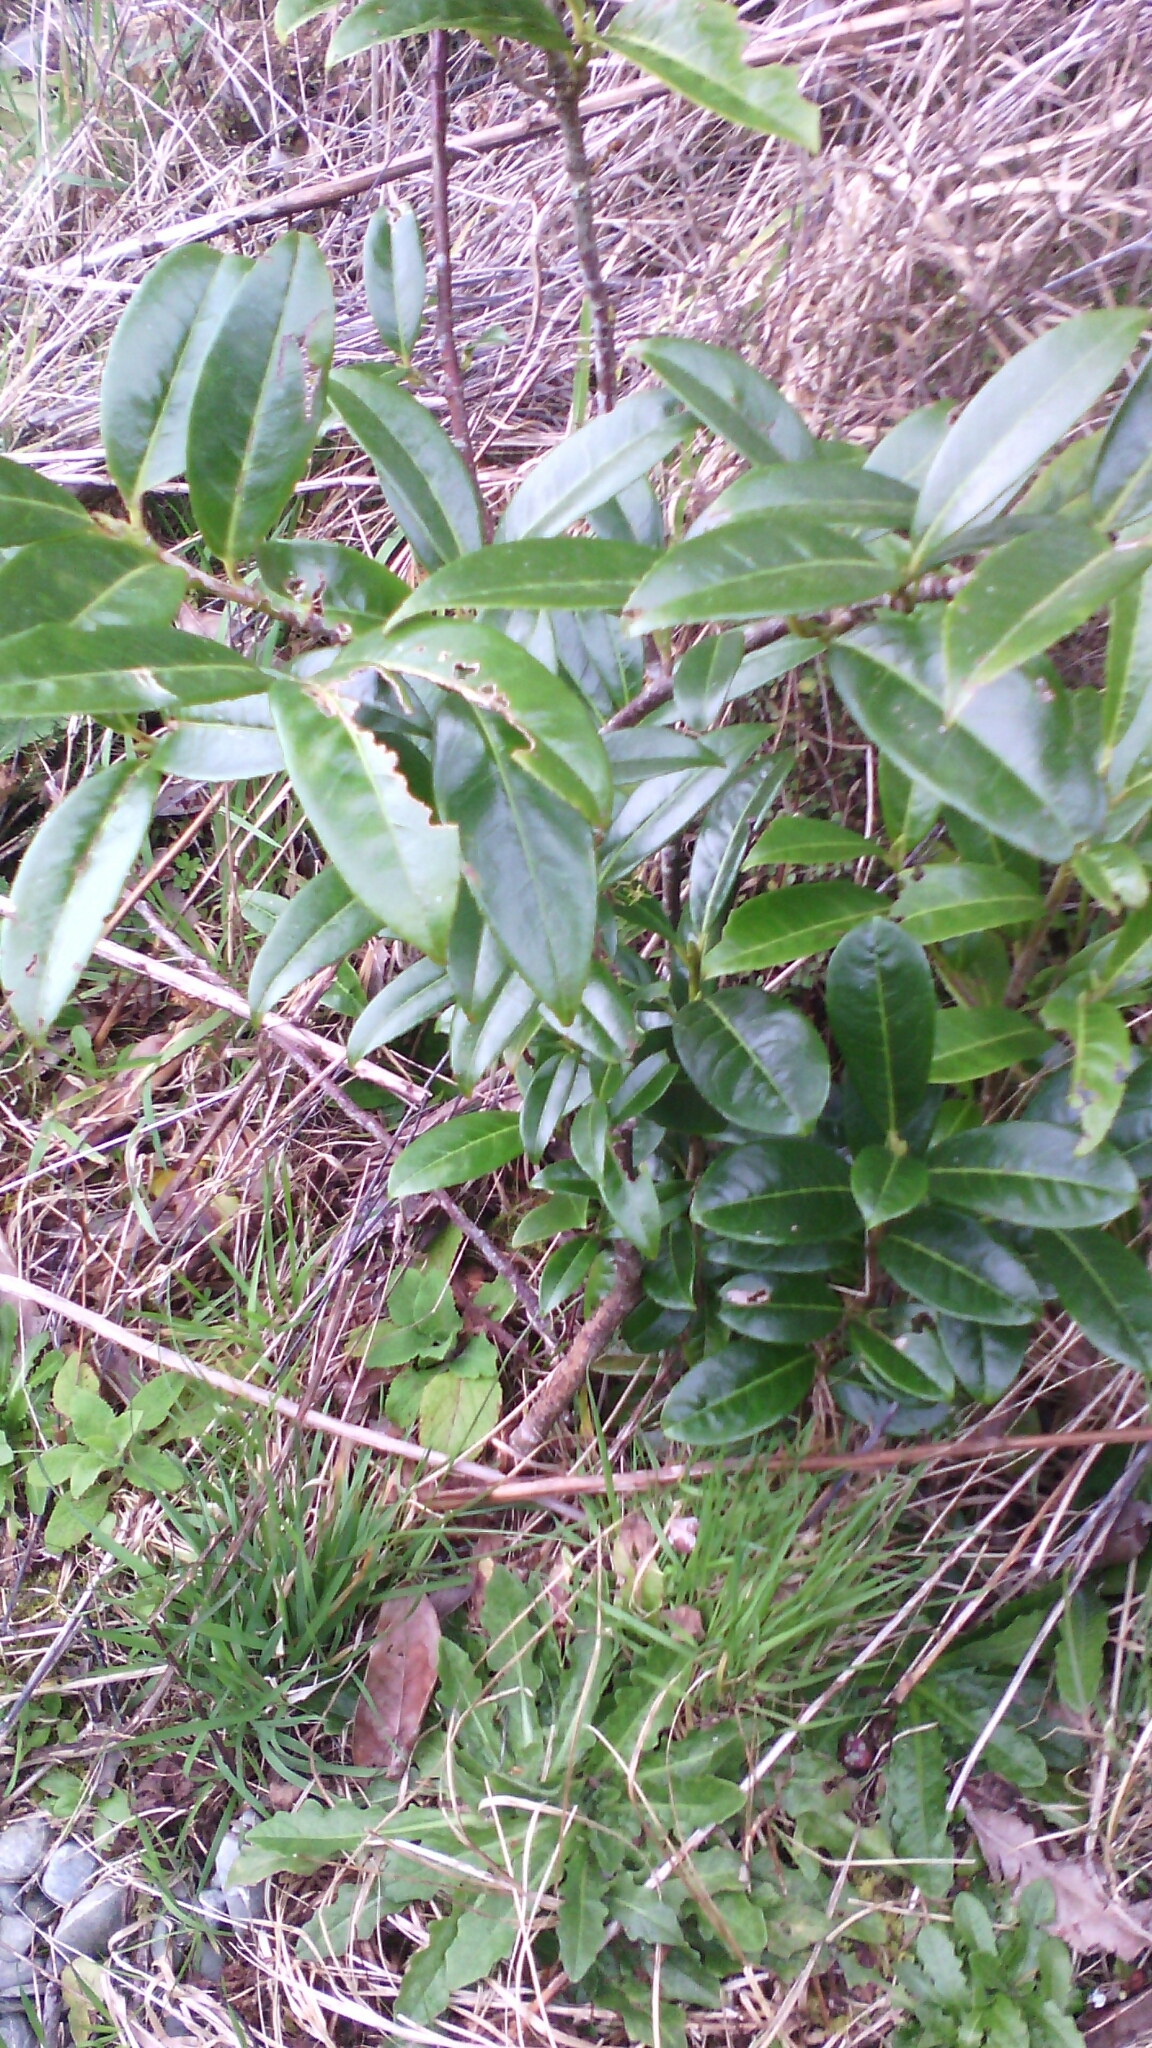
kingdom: Plantae
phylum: Tracheophyta
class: Magnoliopsida
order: Rosales
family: Rosaceae
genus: Prunus
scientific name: Prunus laurocerasus
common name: Cherry laurel
